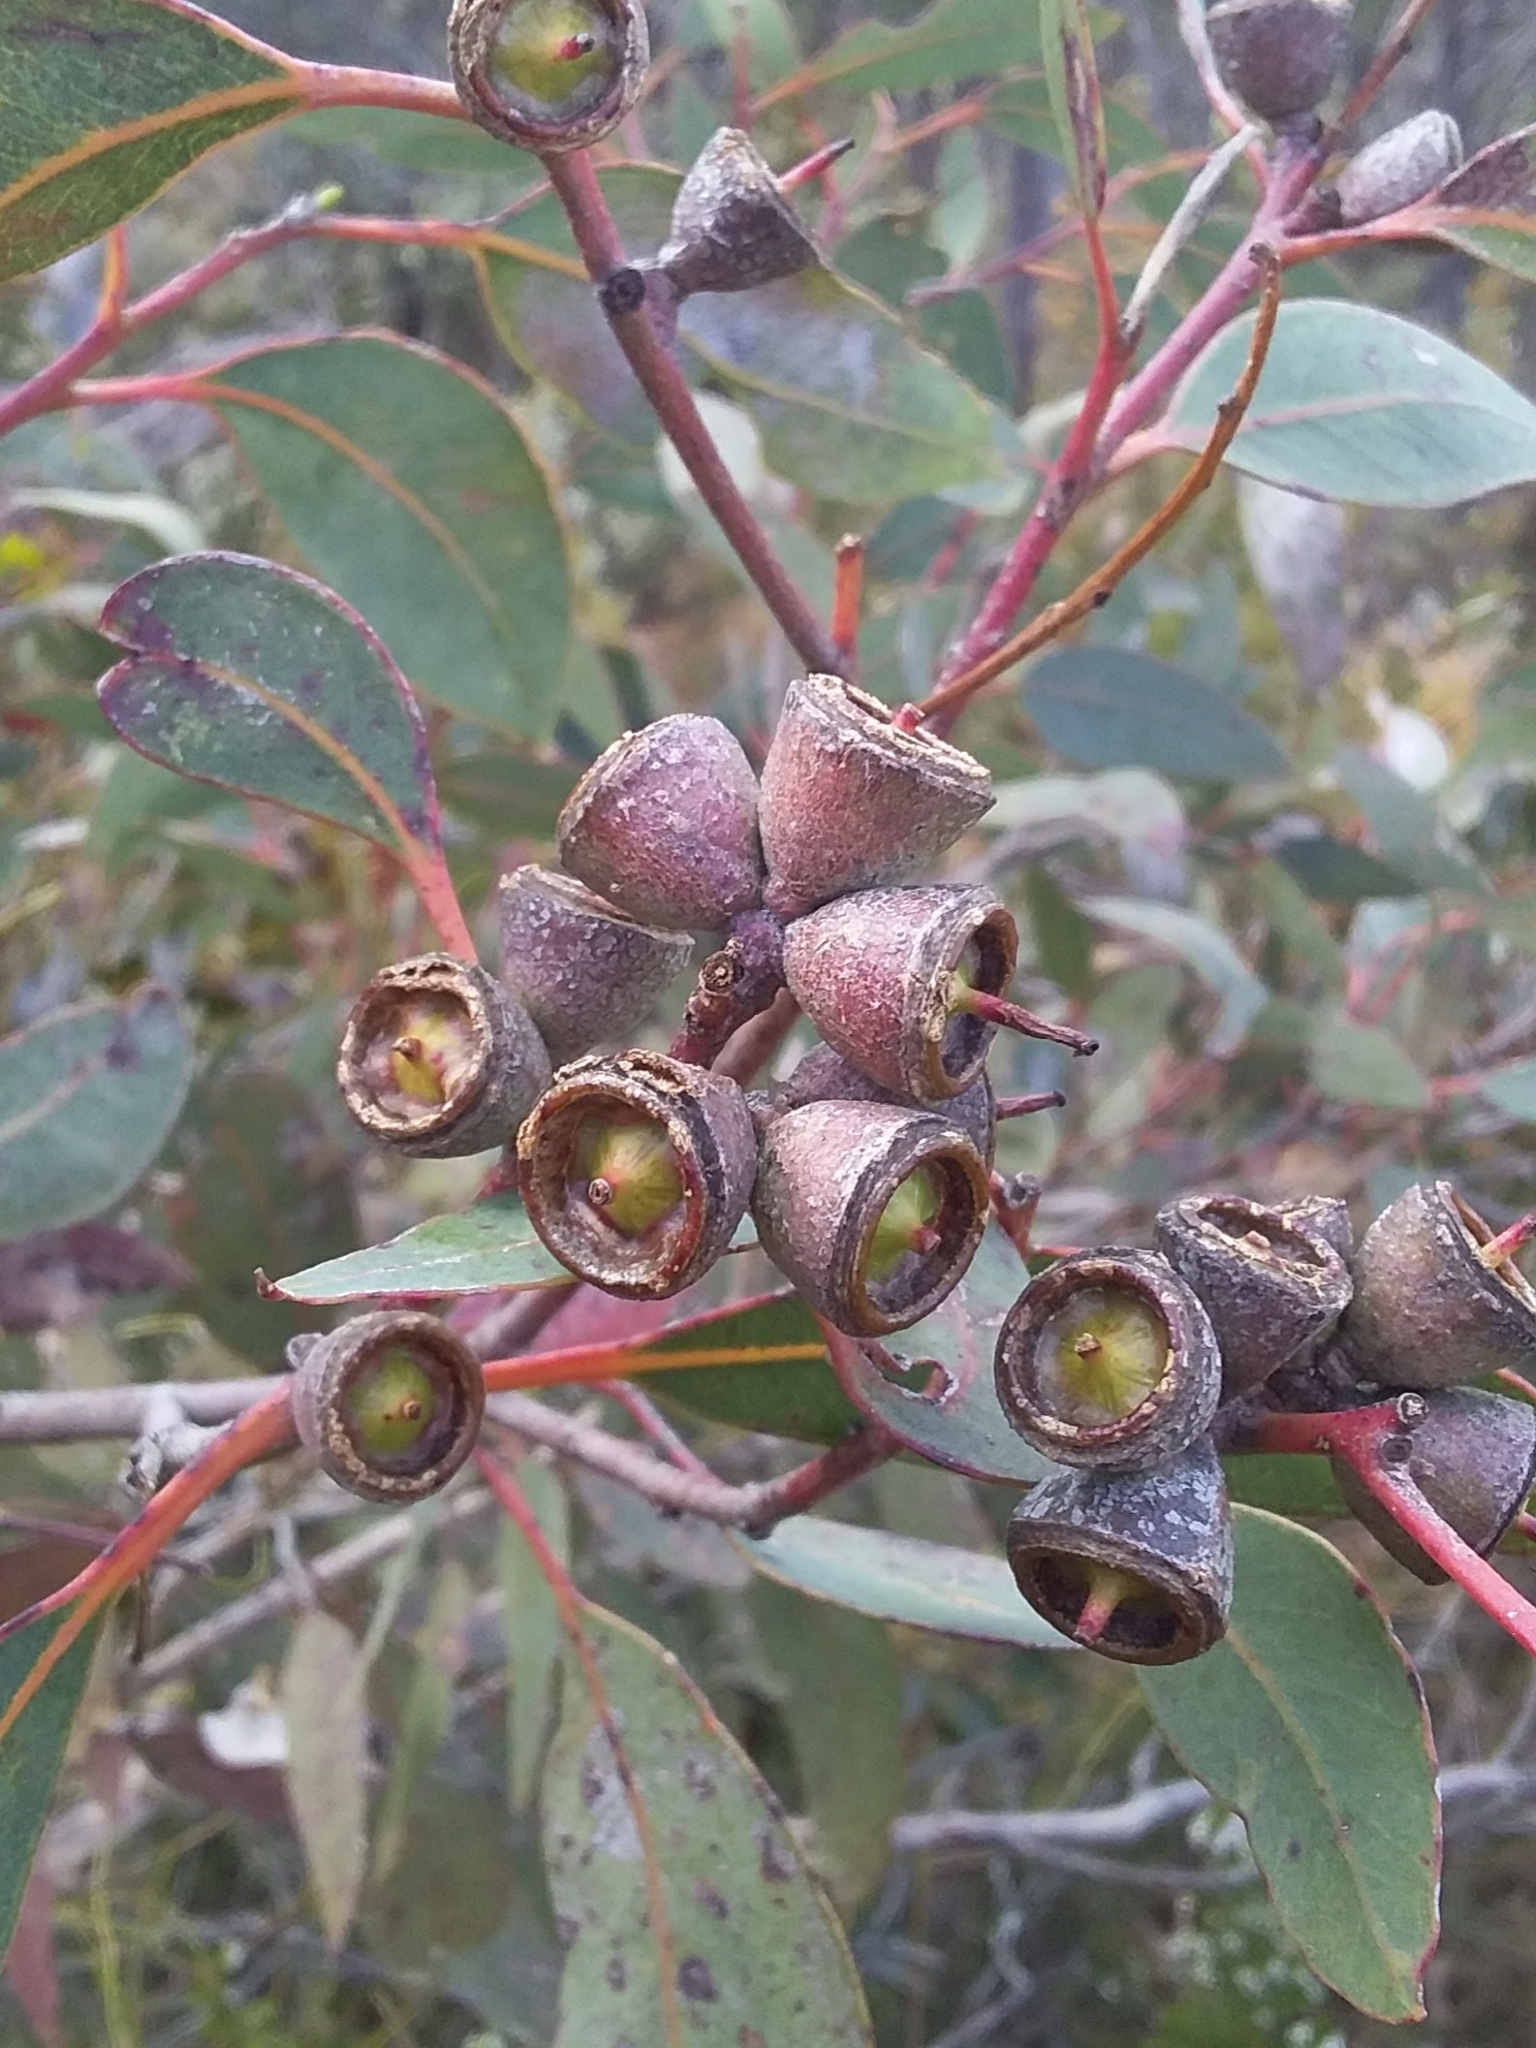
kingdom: Plantae
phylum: Tracheophyta
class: Magnoliopsida
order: Myrtales
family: Myrtaceae
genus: Eucalyptus
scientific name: Eucalyptus cosmophylla
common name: Bog-gum
